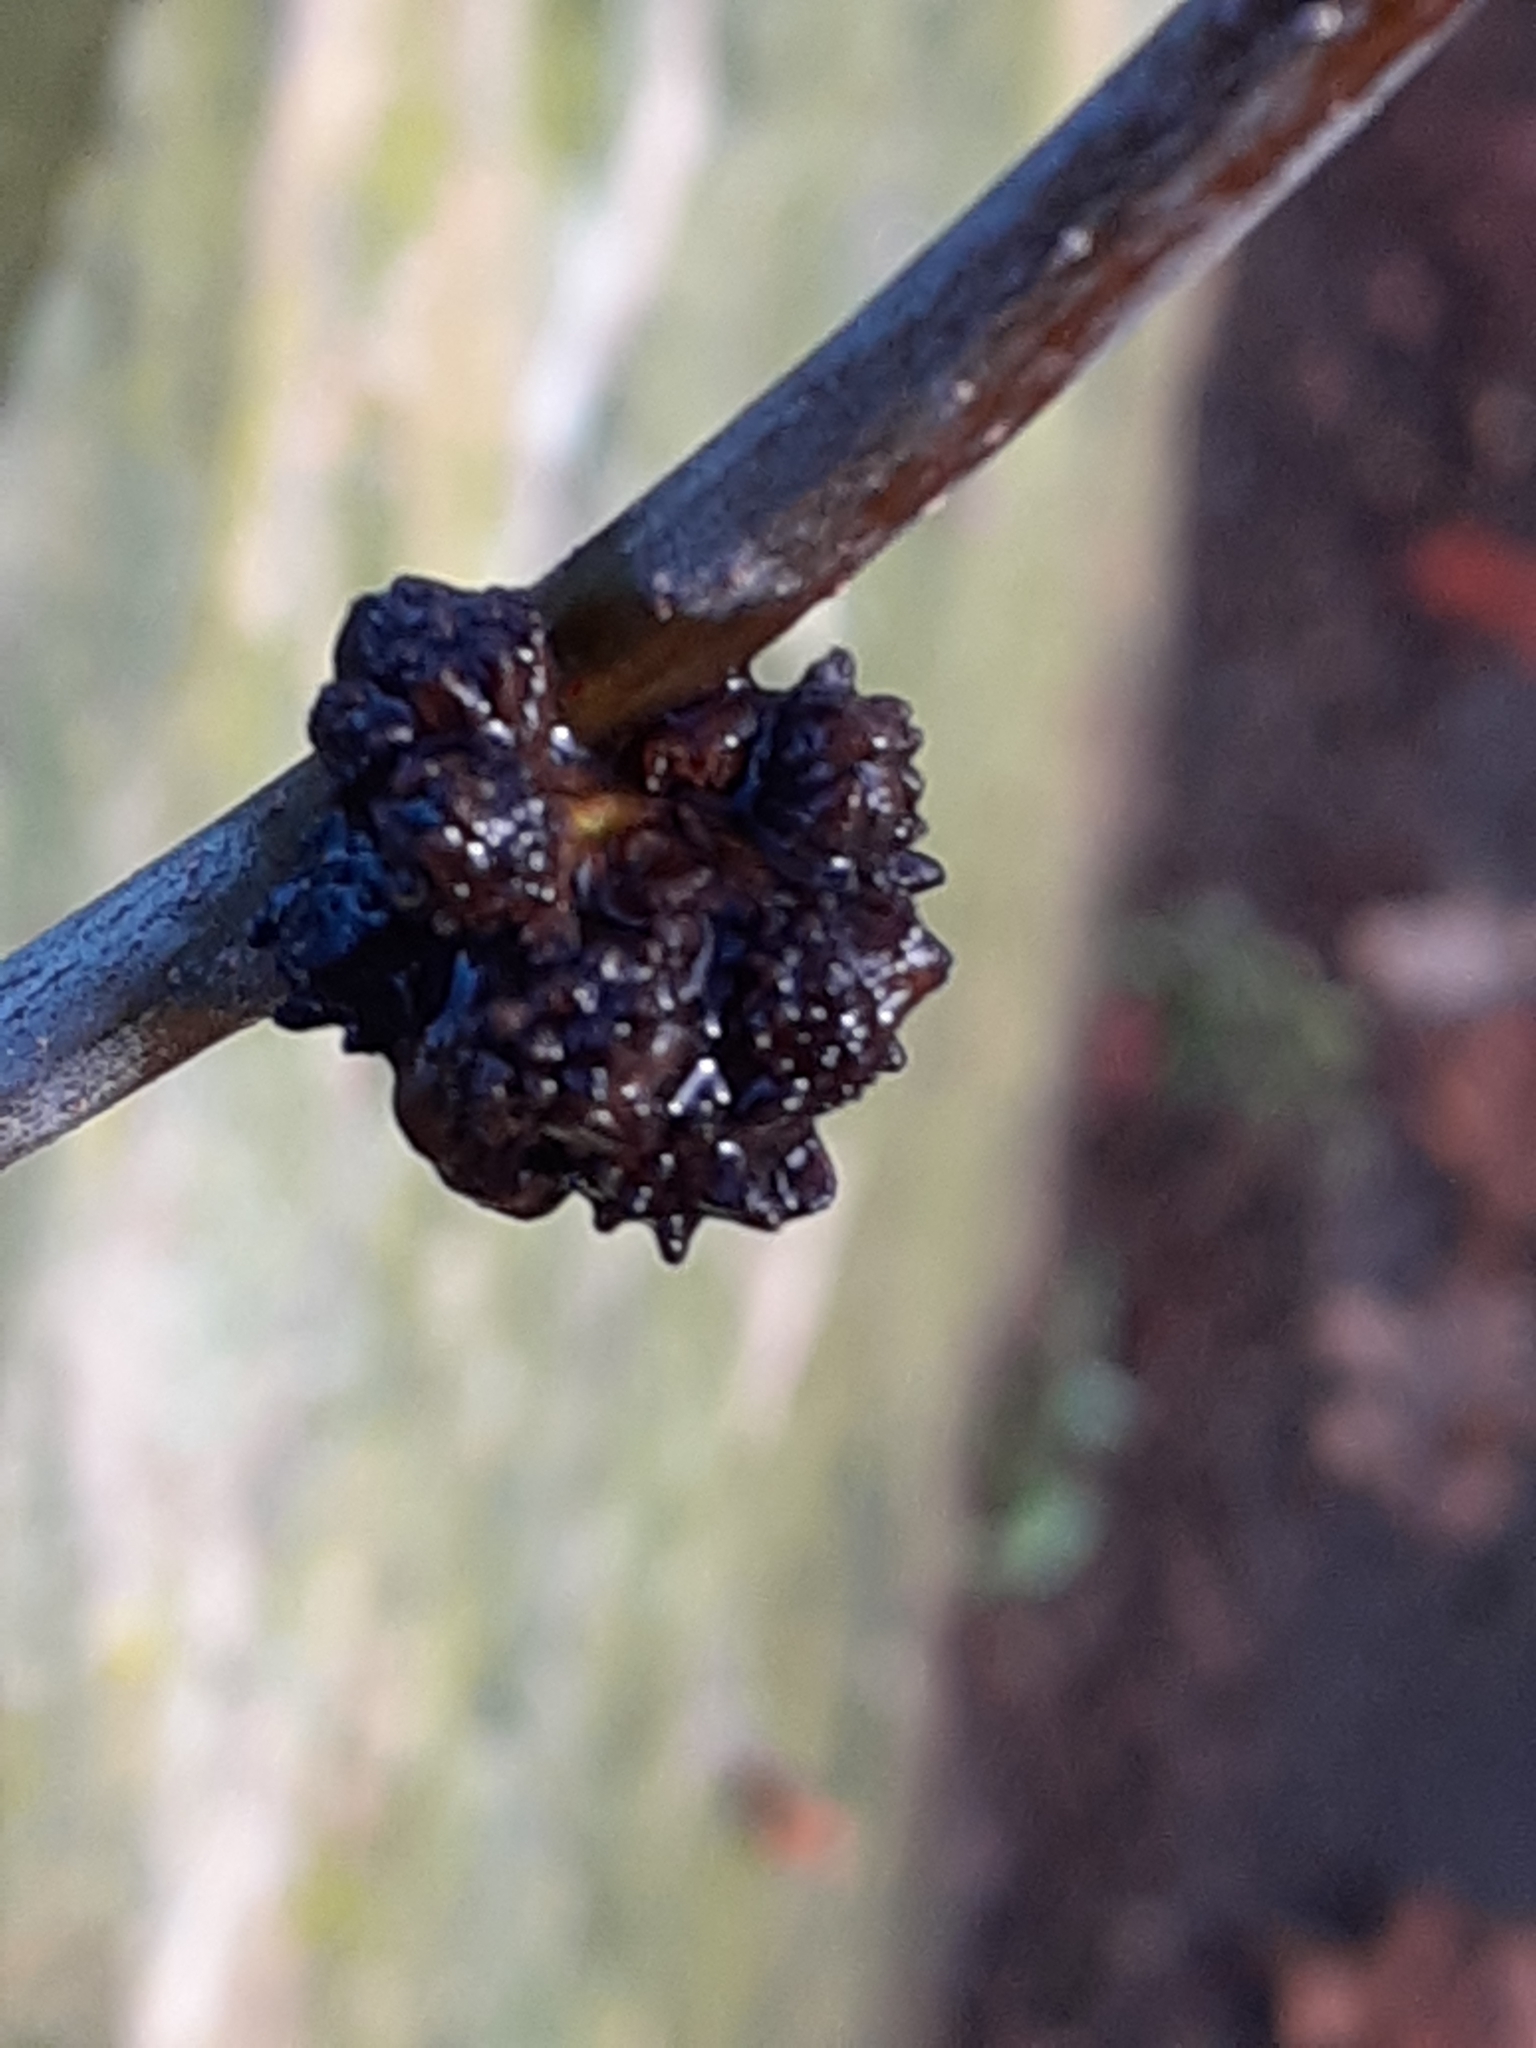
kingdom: Animalia
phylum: Arthropoda
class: Insecta
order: Hymenoptera
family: Cynipidae
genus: Andricus
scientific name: Andricus gemmeus
